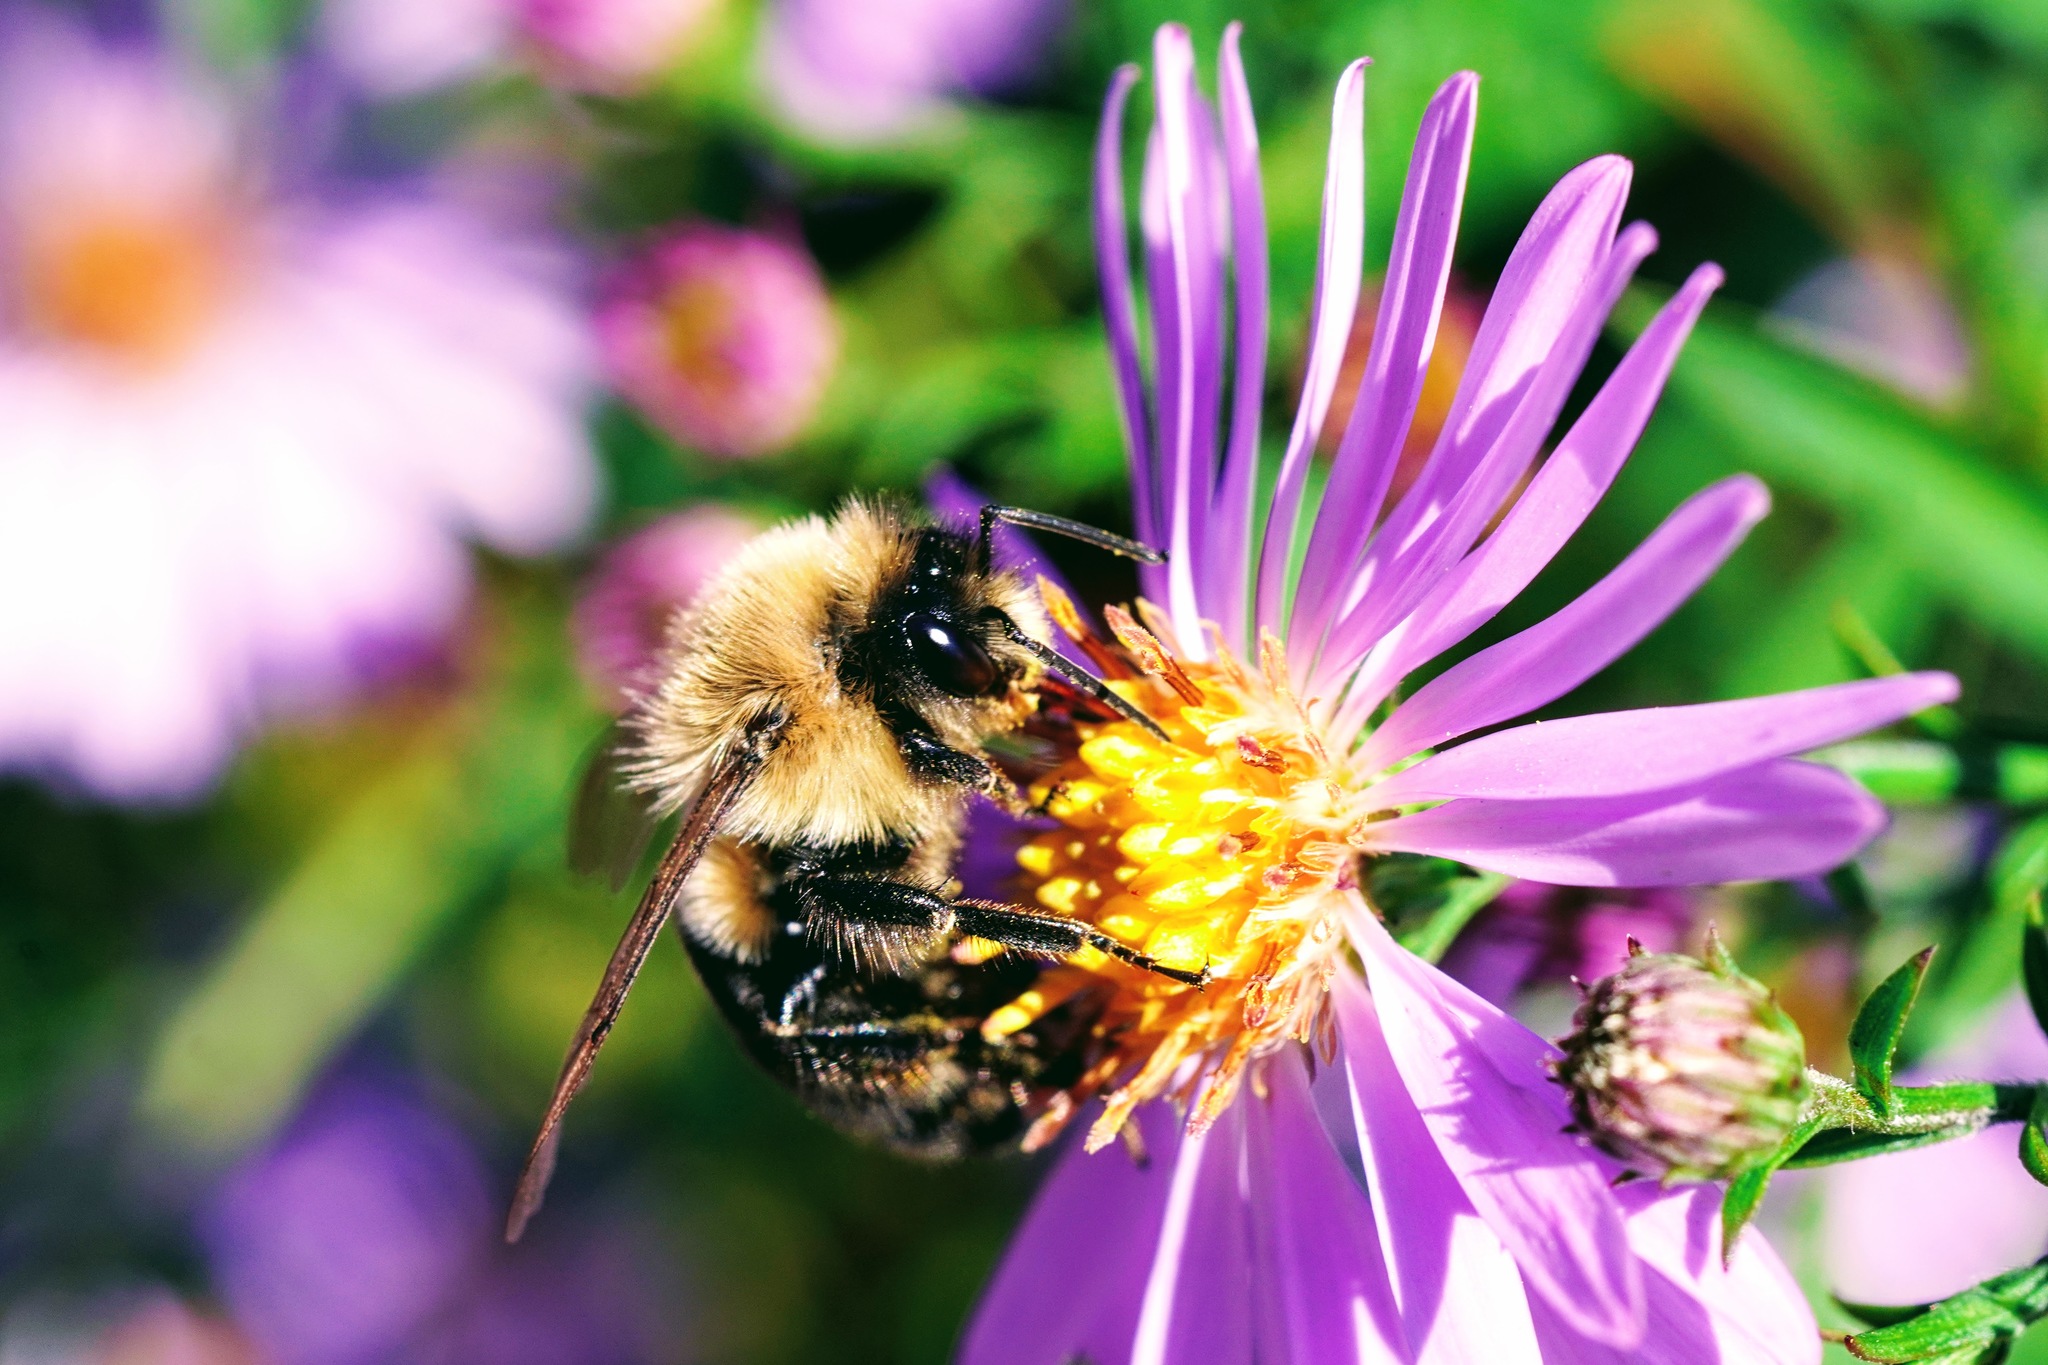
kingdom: Animalia
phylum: Arthropoda
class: Insecta
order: Hymenoptera
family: Apidae
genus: Bombus
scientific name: Bombus impatiens
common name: Common eastern bumble bee
